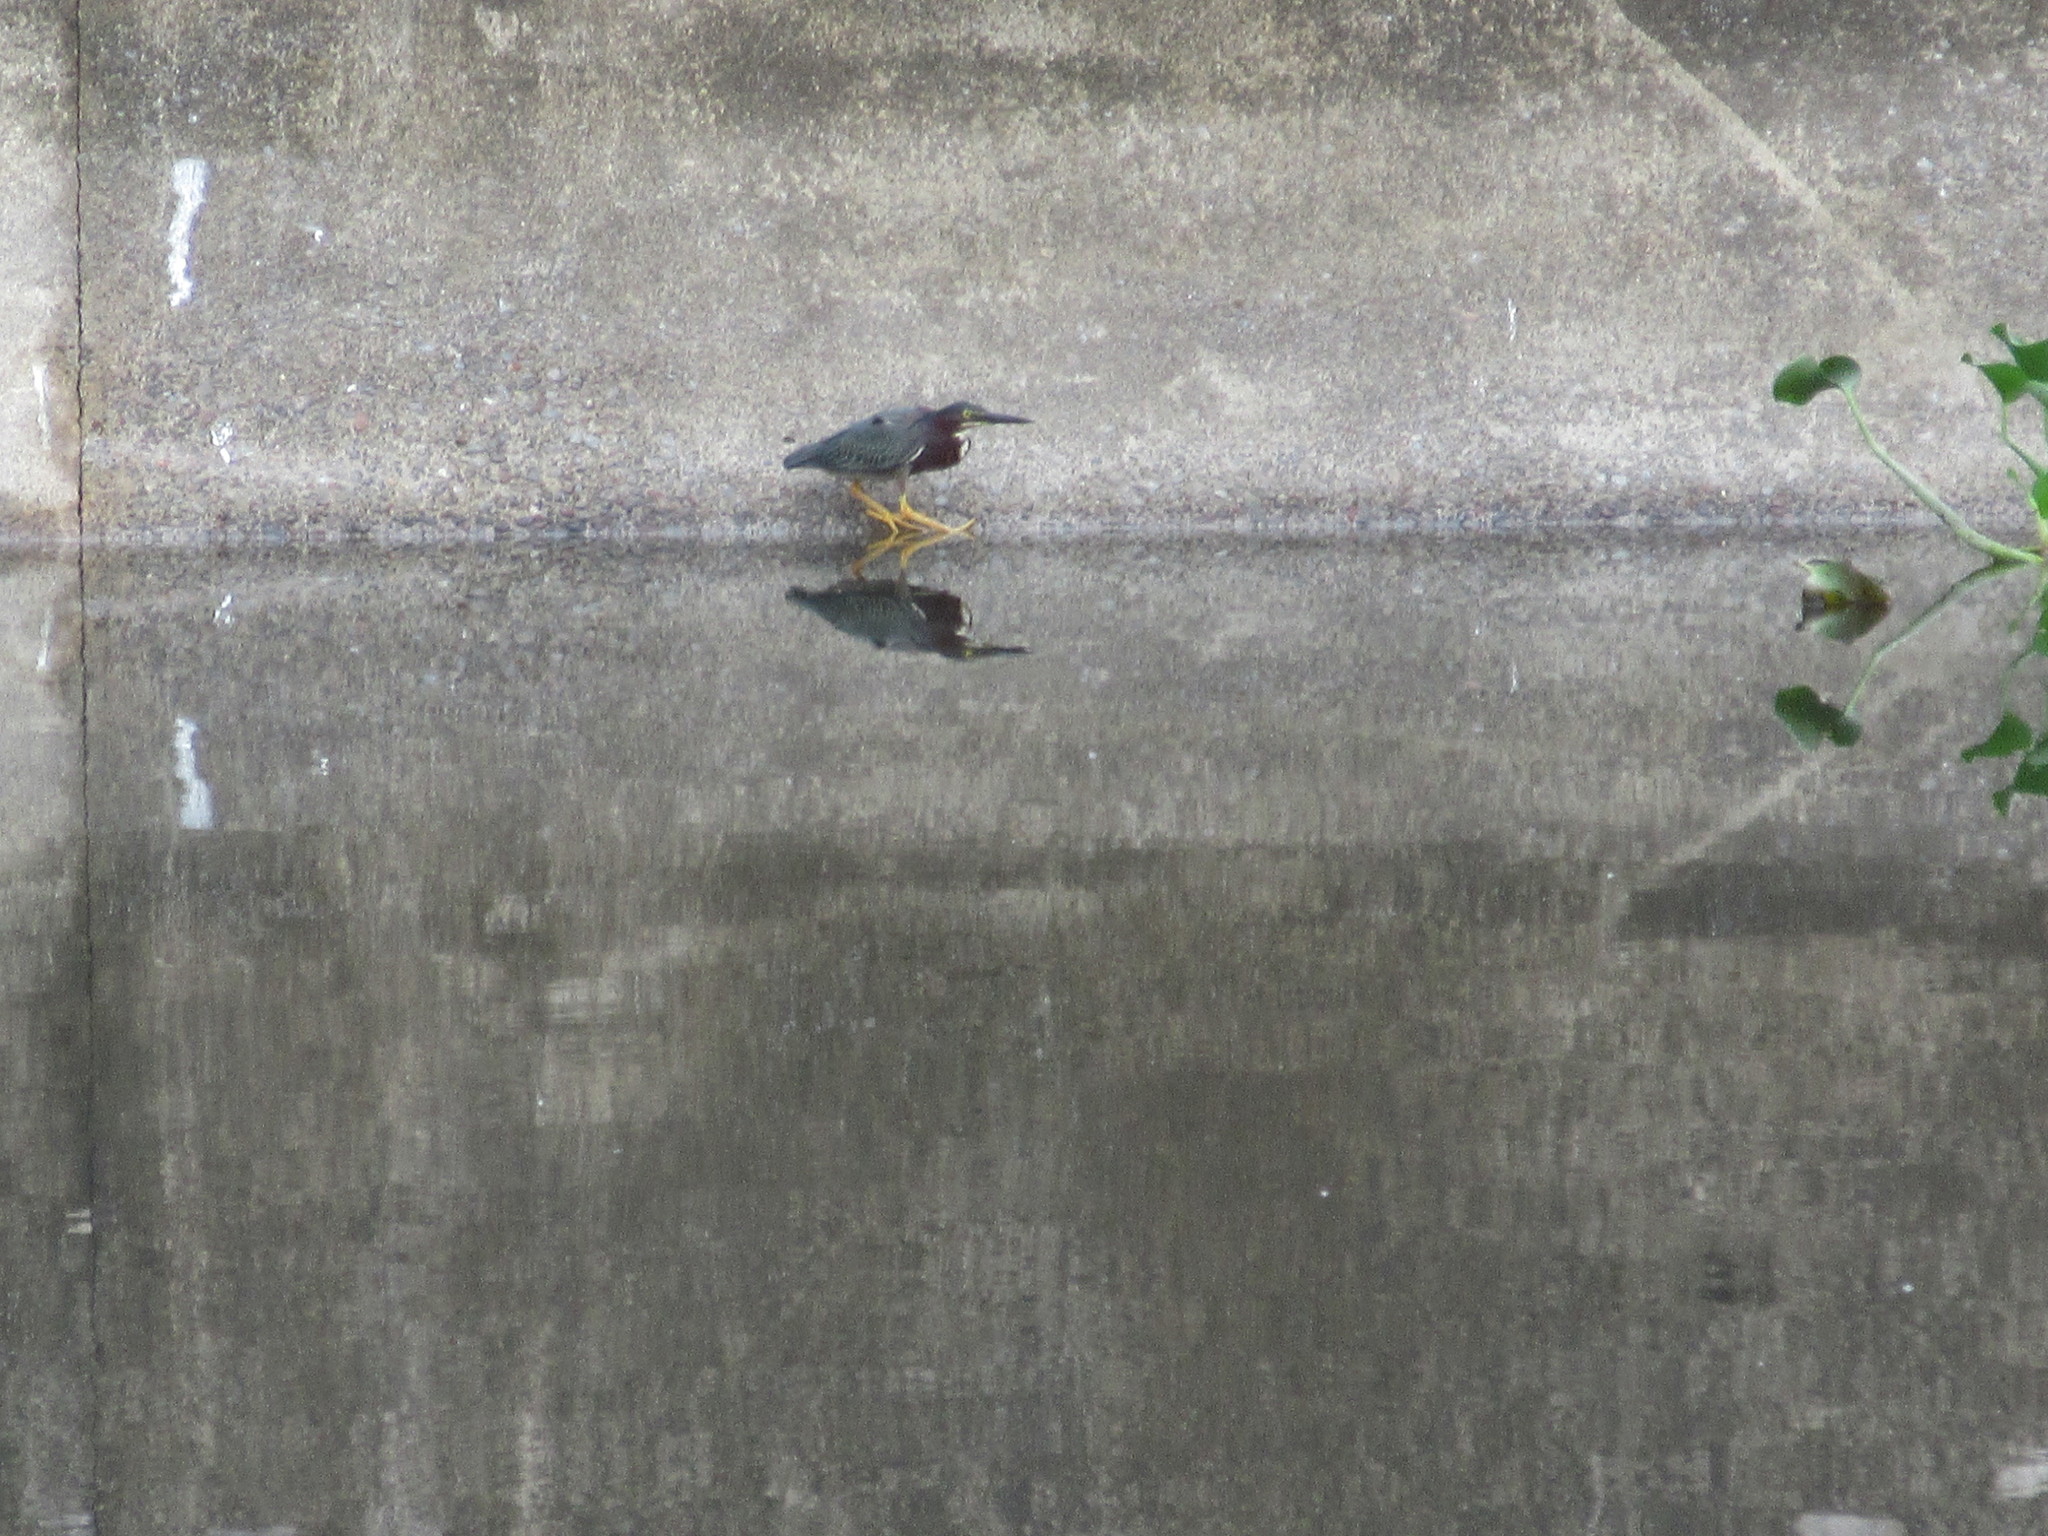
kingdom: Animalia
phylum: Chordata
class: Aves
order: Pelecaniformes
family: Ardeidae
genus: Butorides
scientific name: Butorides virescens
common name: Green heron
